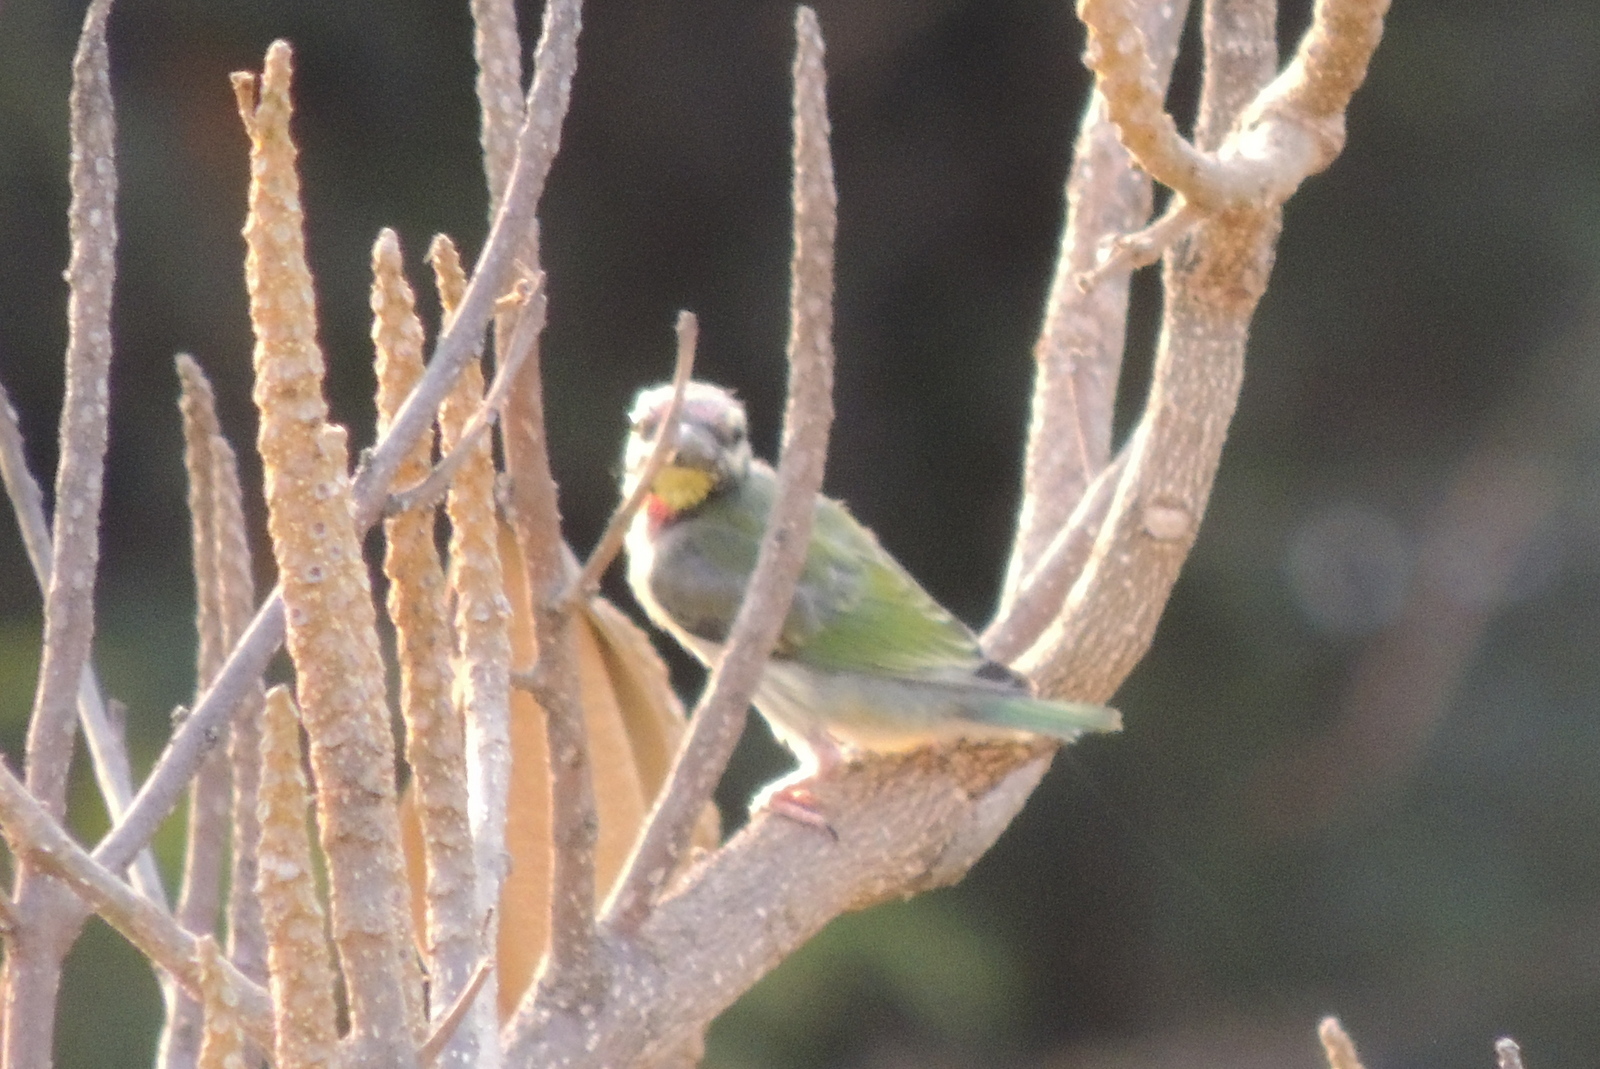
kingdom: Animalia
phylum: Chordata
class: Aves
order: Piciformes
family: Megalaimidae
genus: Psilopogon
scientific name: Psilopogon haemacephalus
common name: Coppersmith barbet
